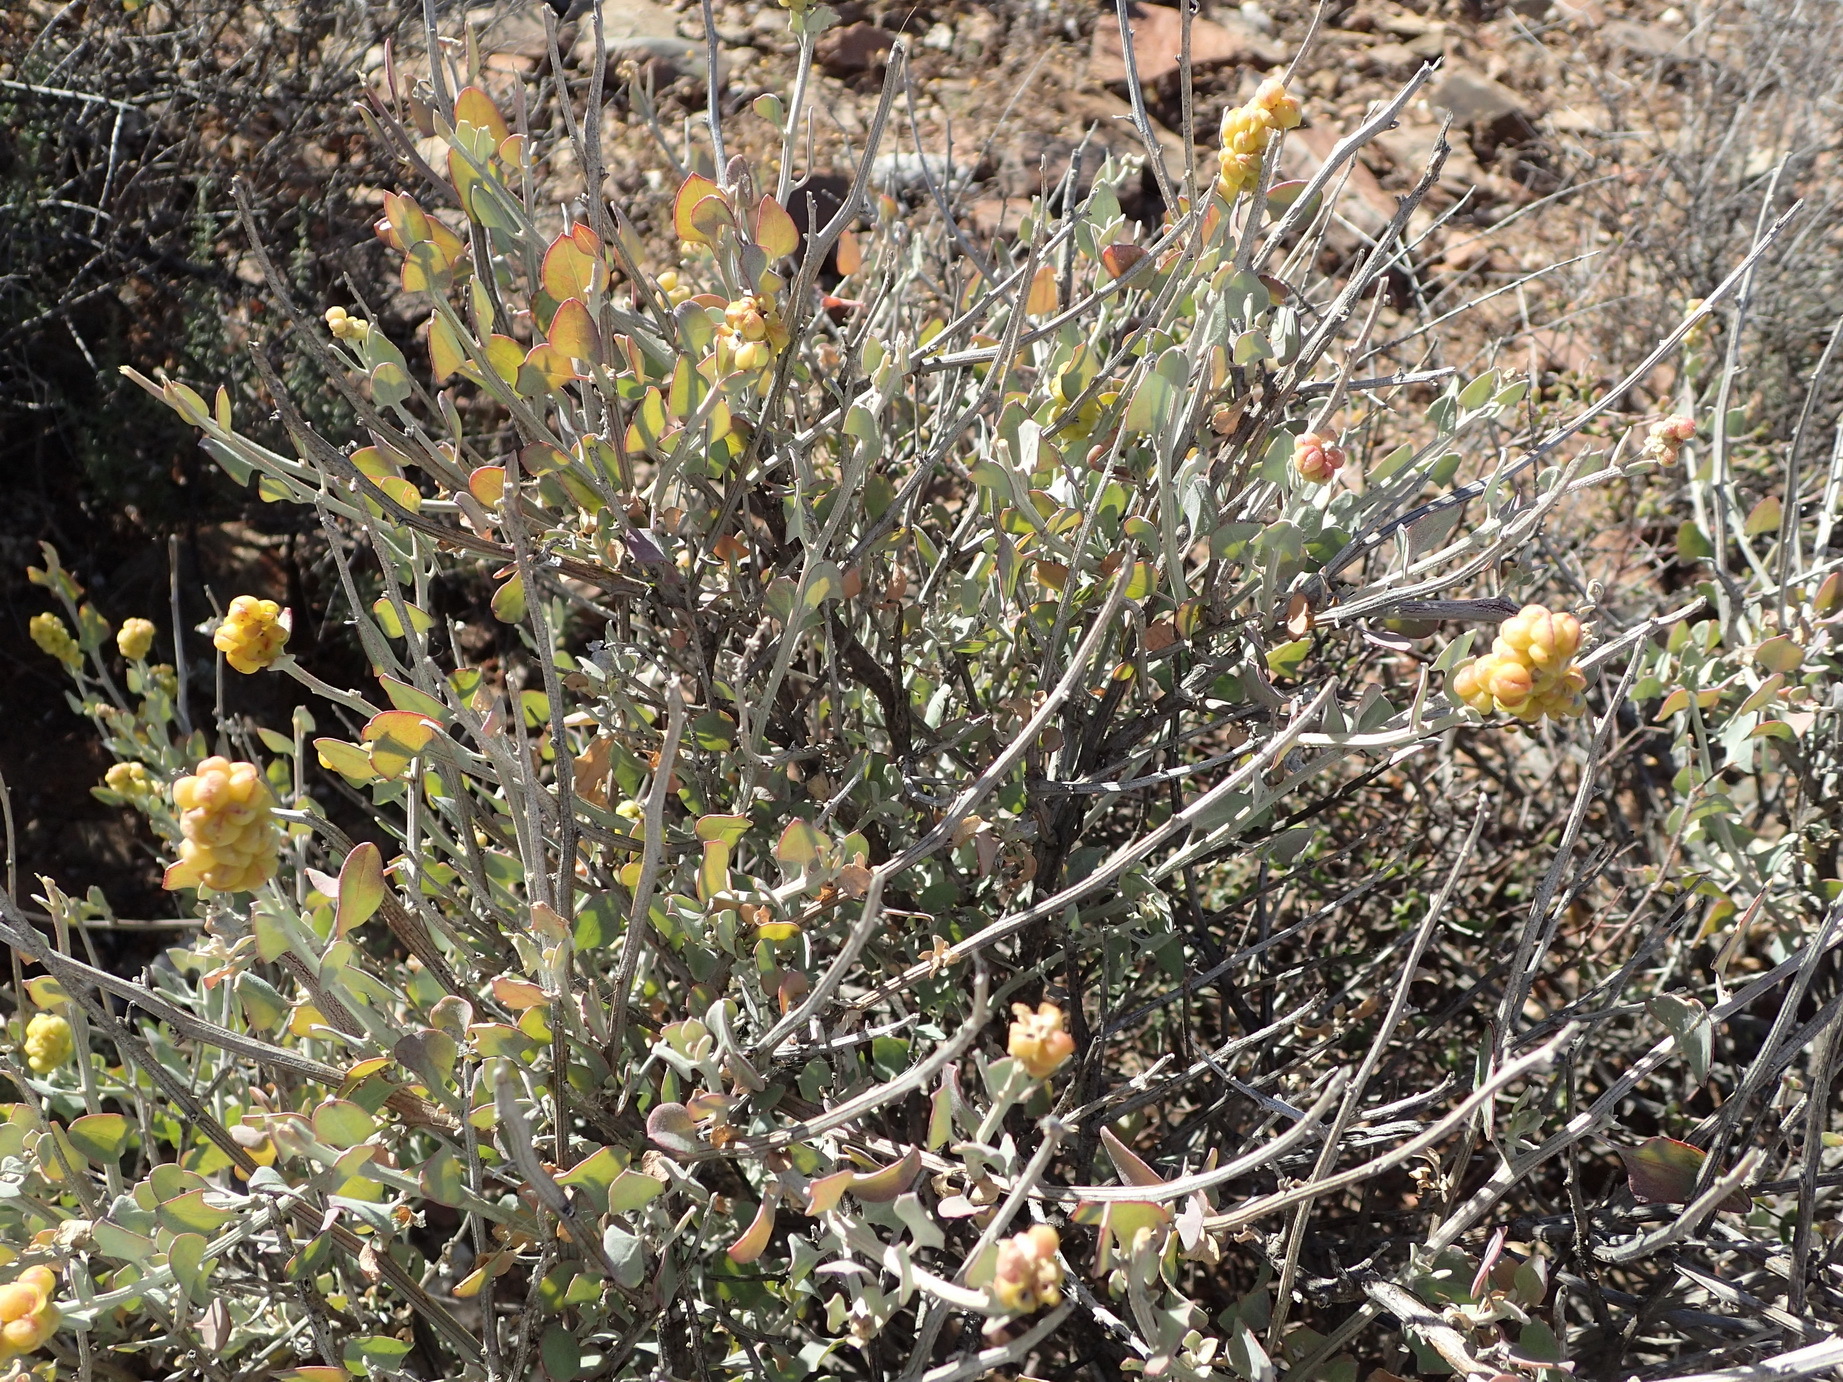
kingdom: Plantae
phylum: Tracheophyta
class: Magnoliopsida
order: Caryophyllales
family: Amaranthaceae
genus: Exomis
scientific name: Exomis albicans
